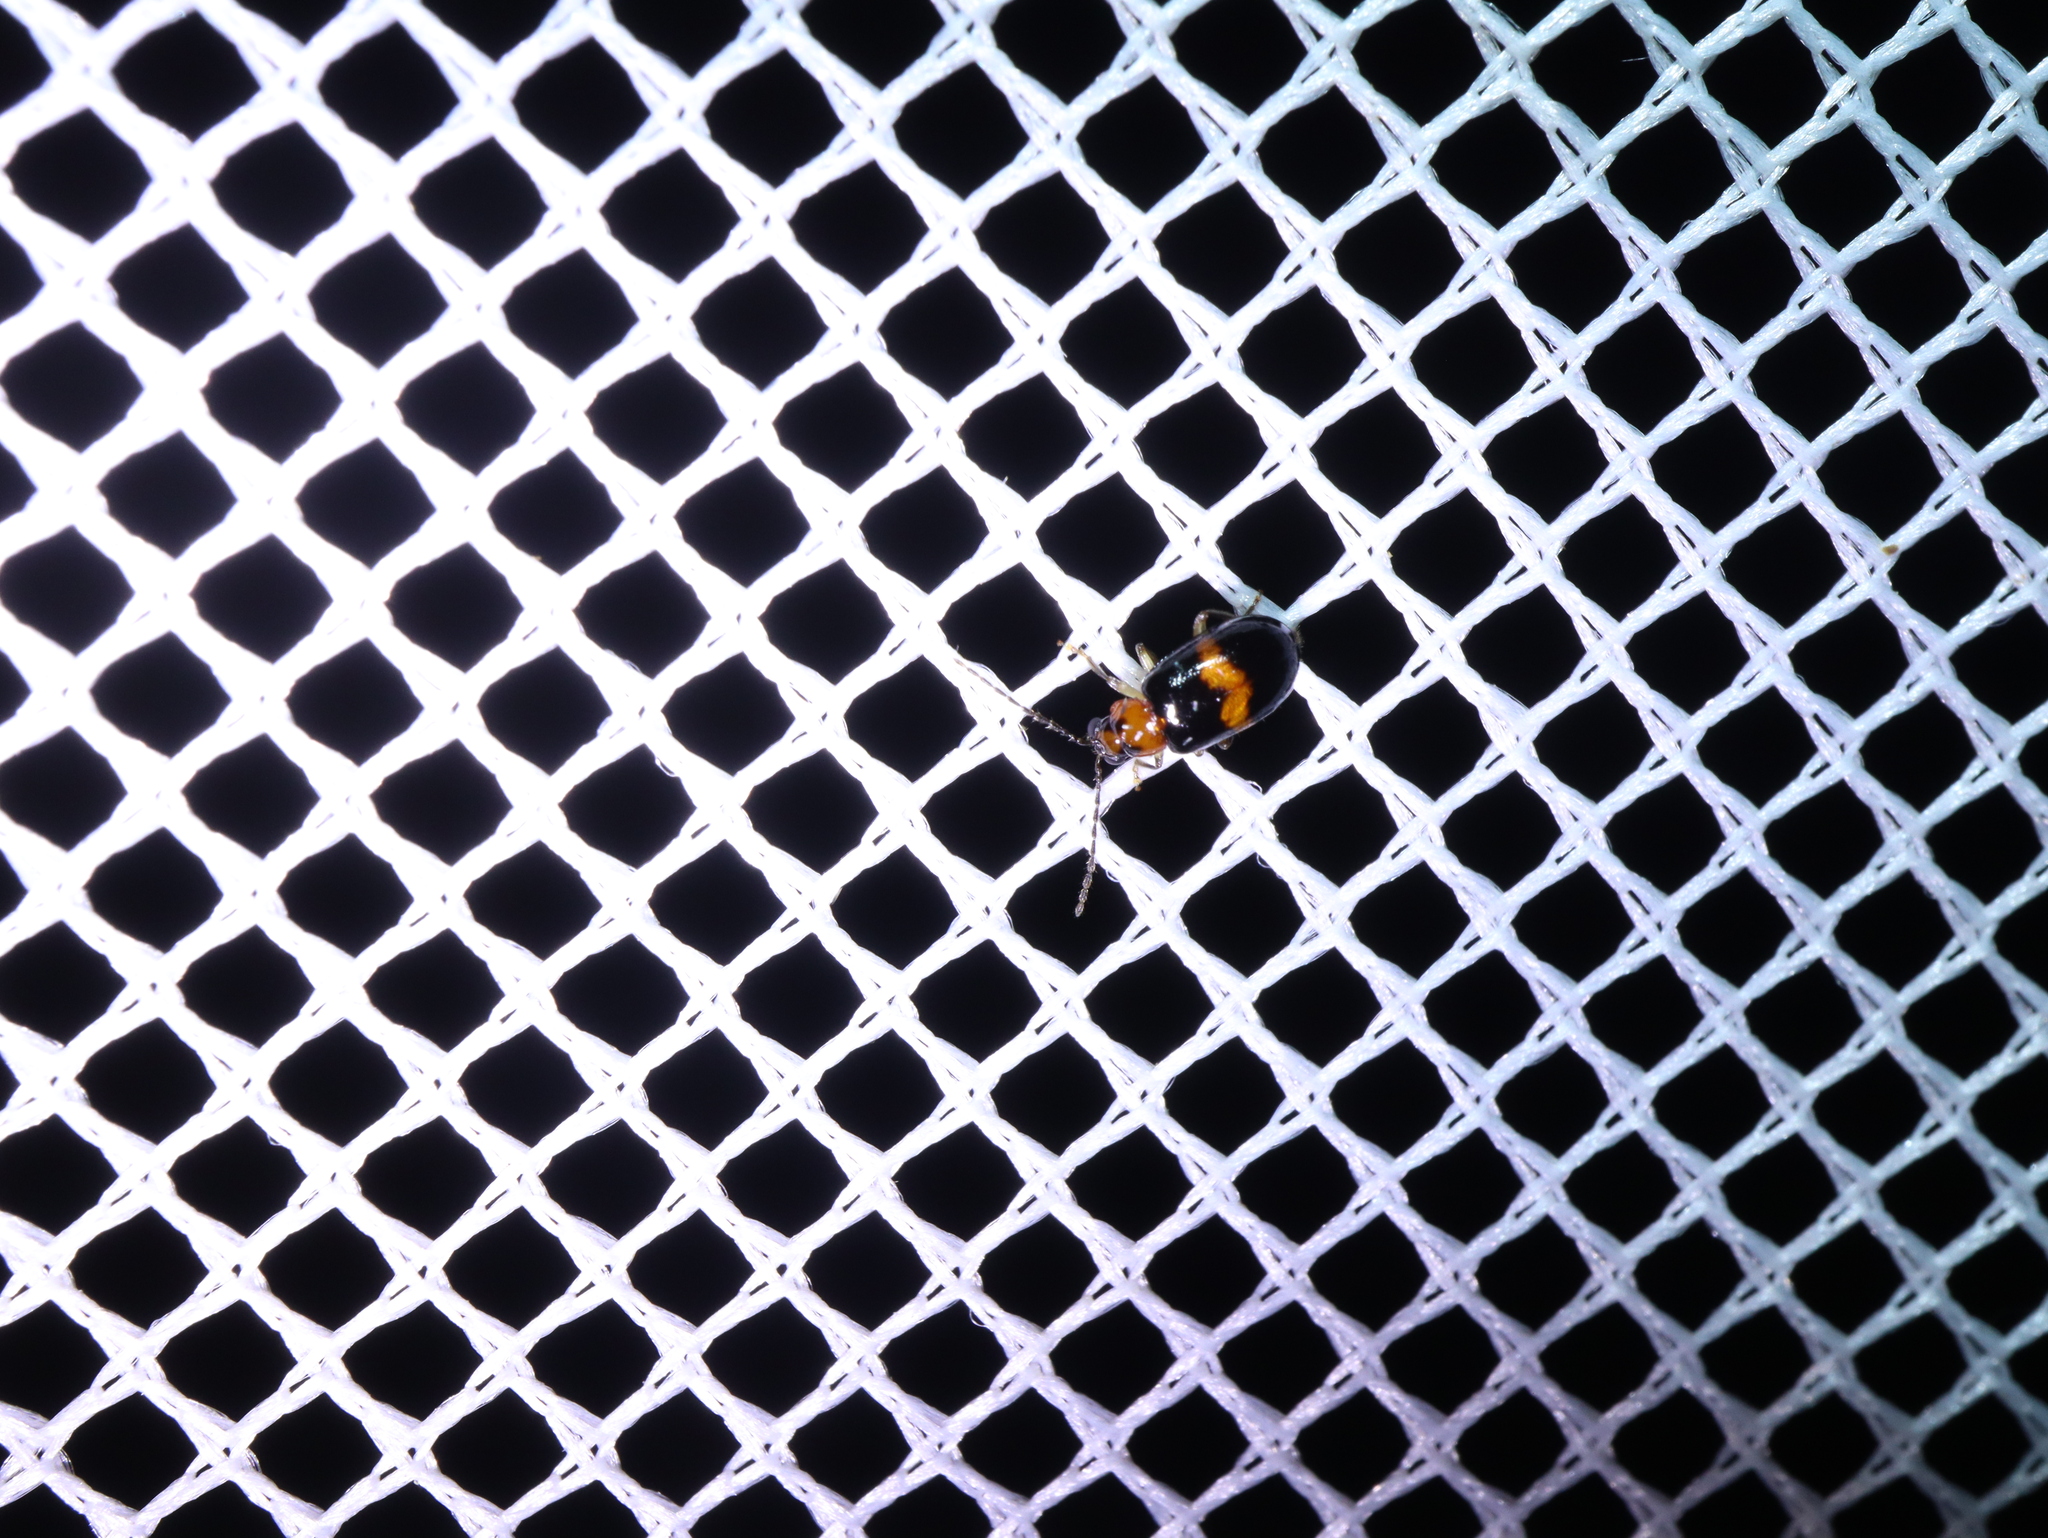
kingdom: Animalia
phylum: Arthropoda
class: Insecta
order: Coleoptera
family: Chrysomelidae
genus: Monolepta
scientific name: Monolepta
